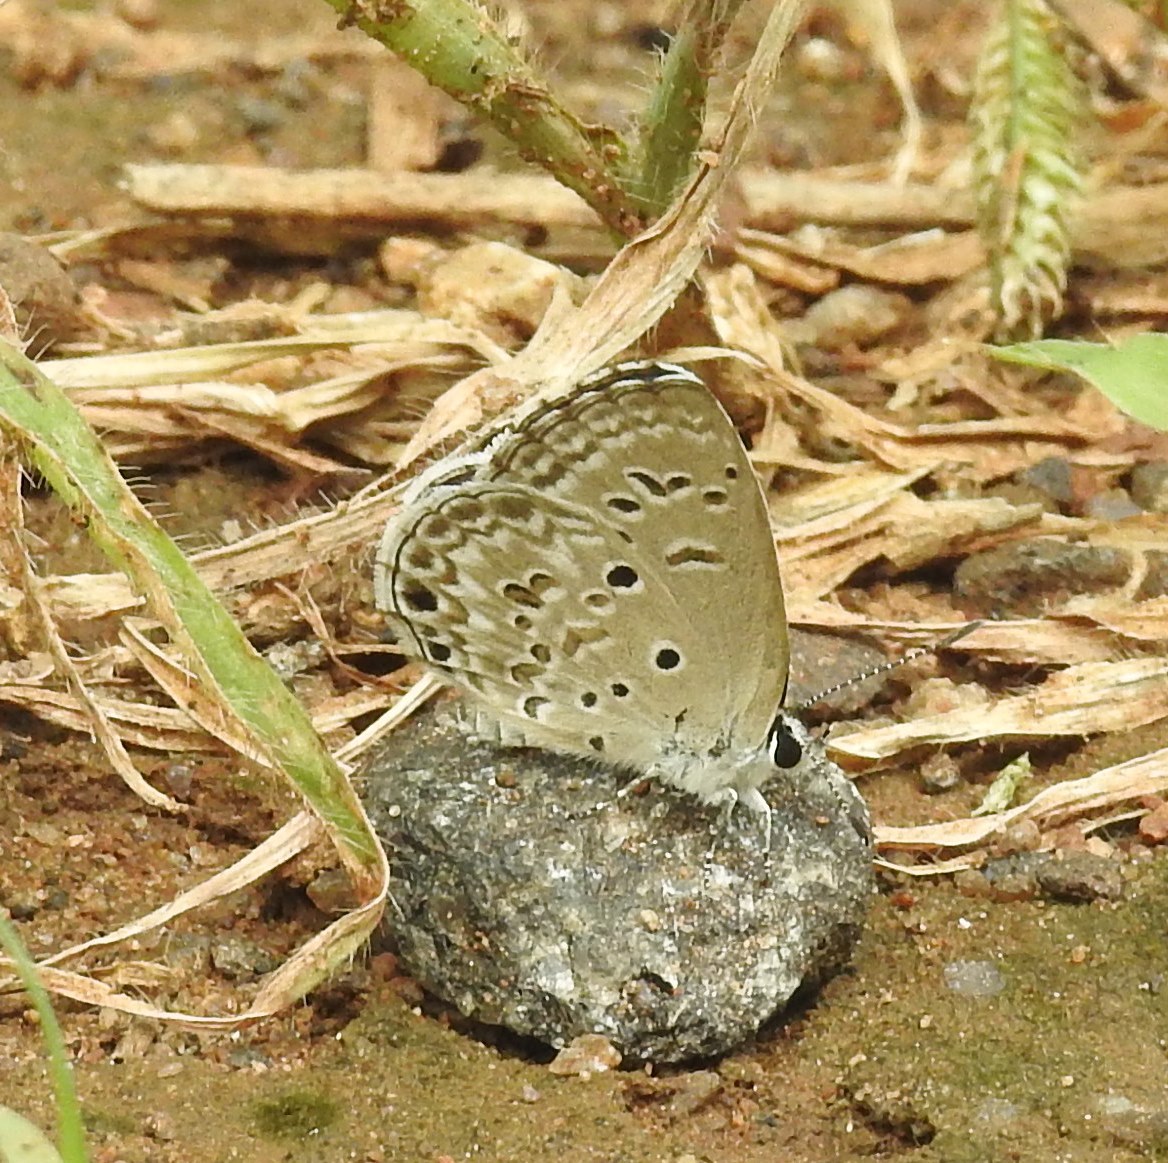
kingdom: Animalia
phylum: Arthropoda
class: Insecta
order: Lepidoptera
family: Lycaenidae
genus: Chilades
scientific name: Chilades laius
